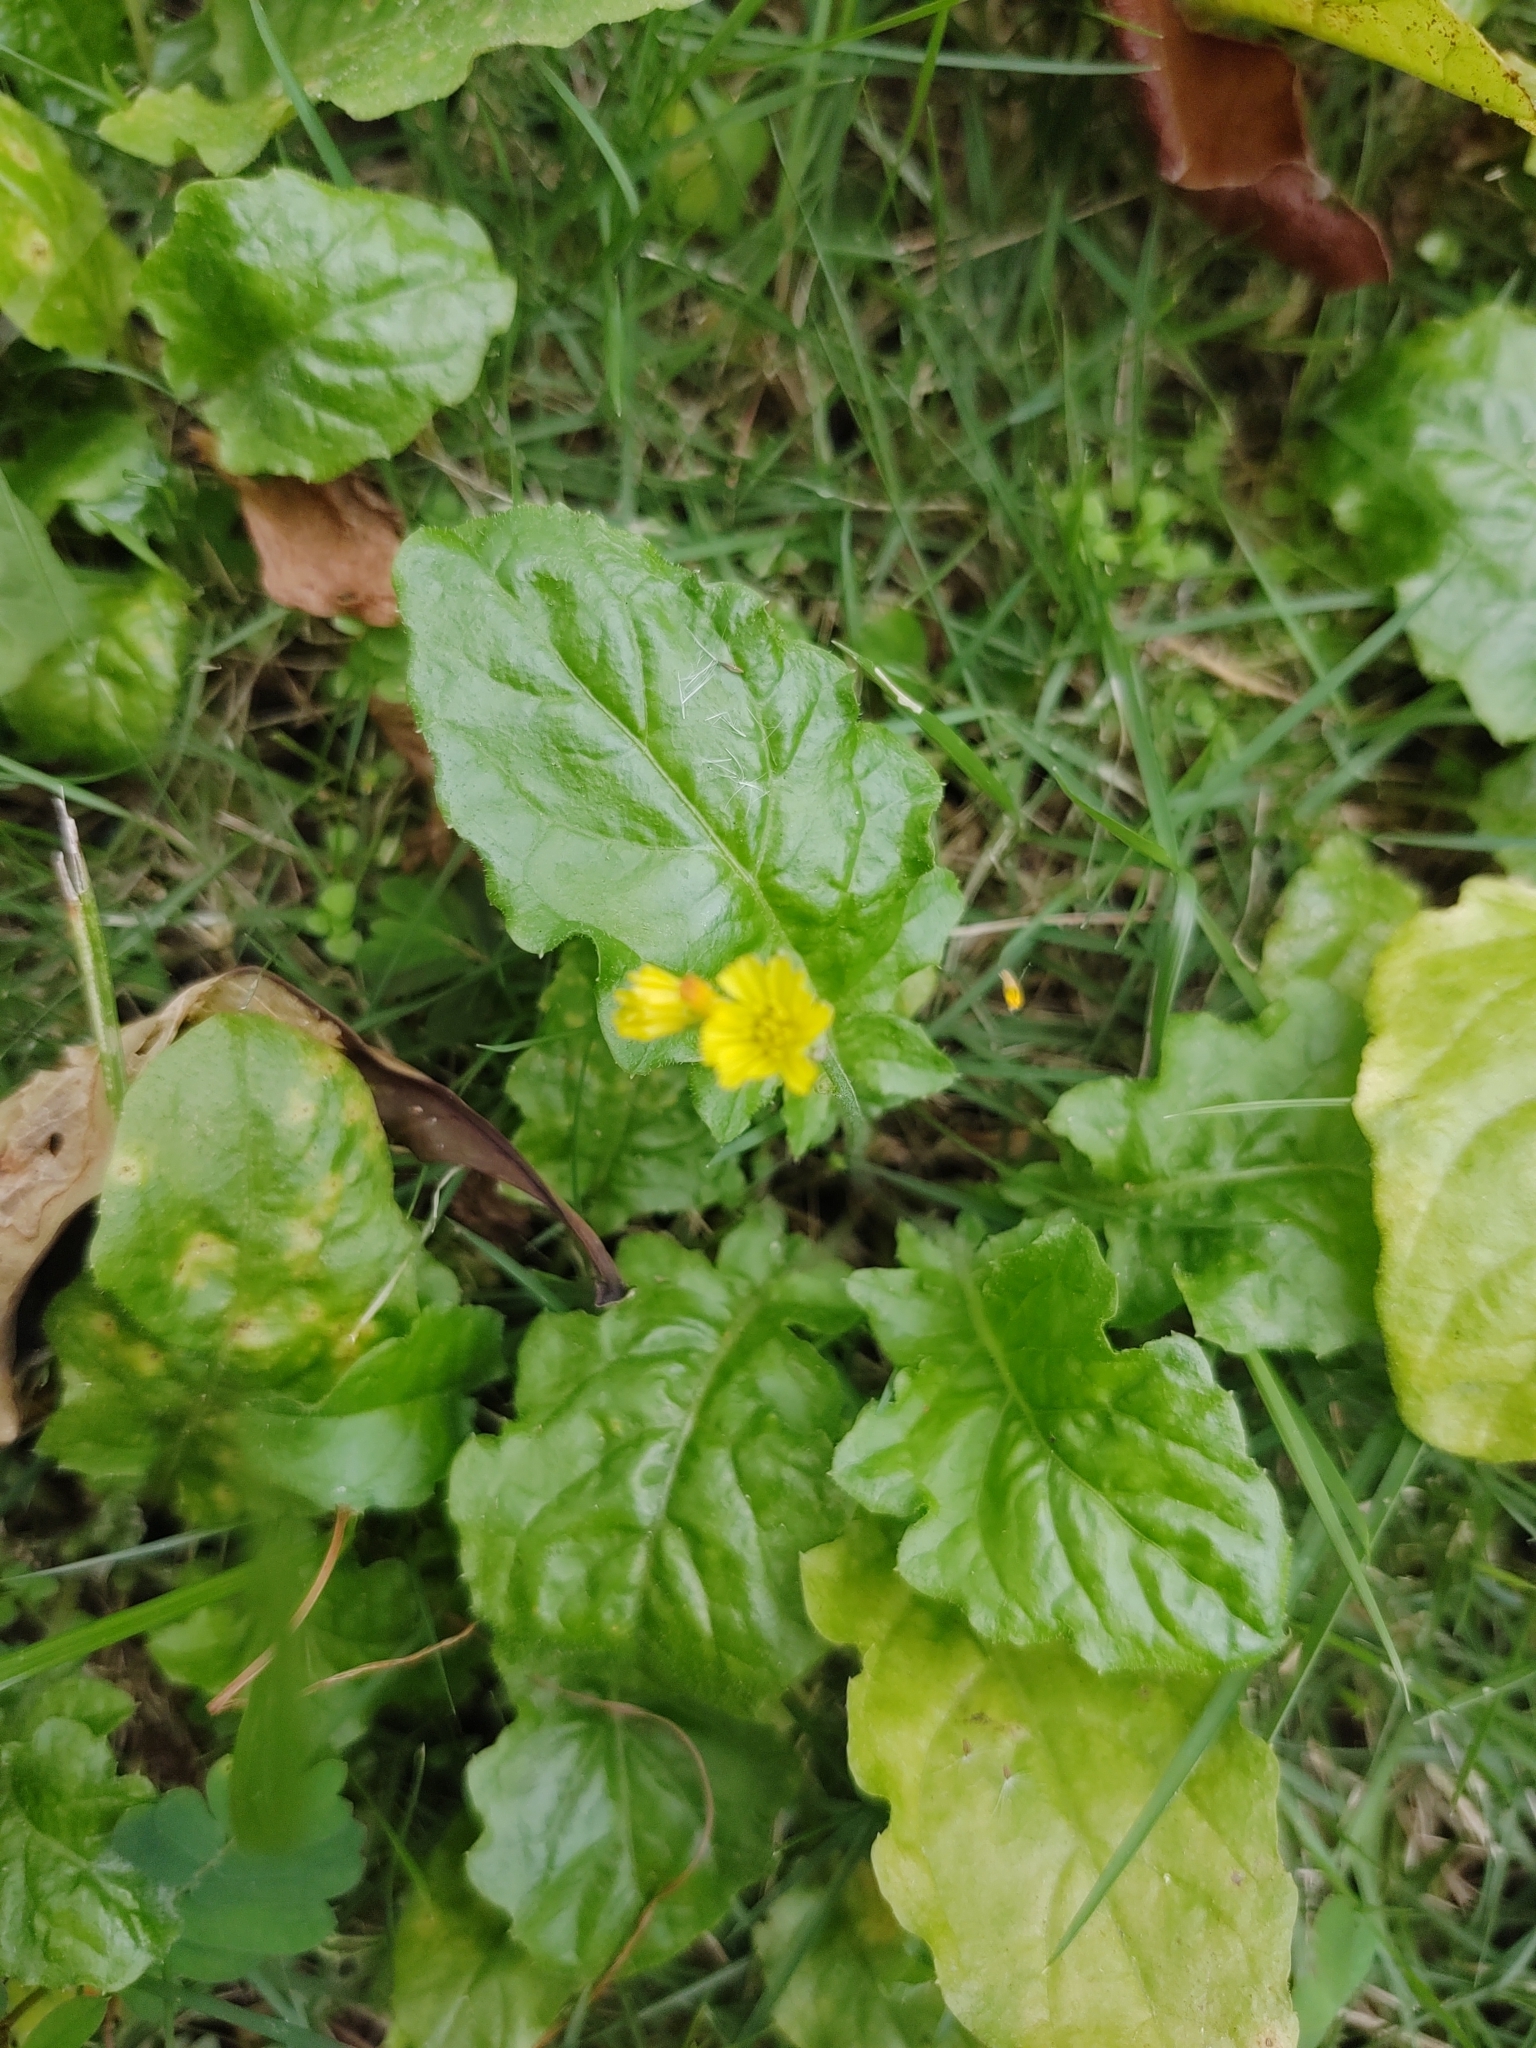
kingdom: Plantae
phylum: Tracheophyta
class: Magnoliopsida
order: Asterales
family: Asteraceae
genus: Youngia
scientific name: Youngia japonica
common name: Oriental false hawksbeard
